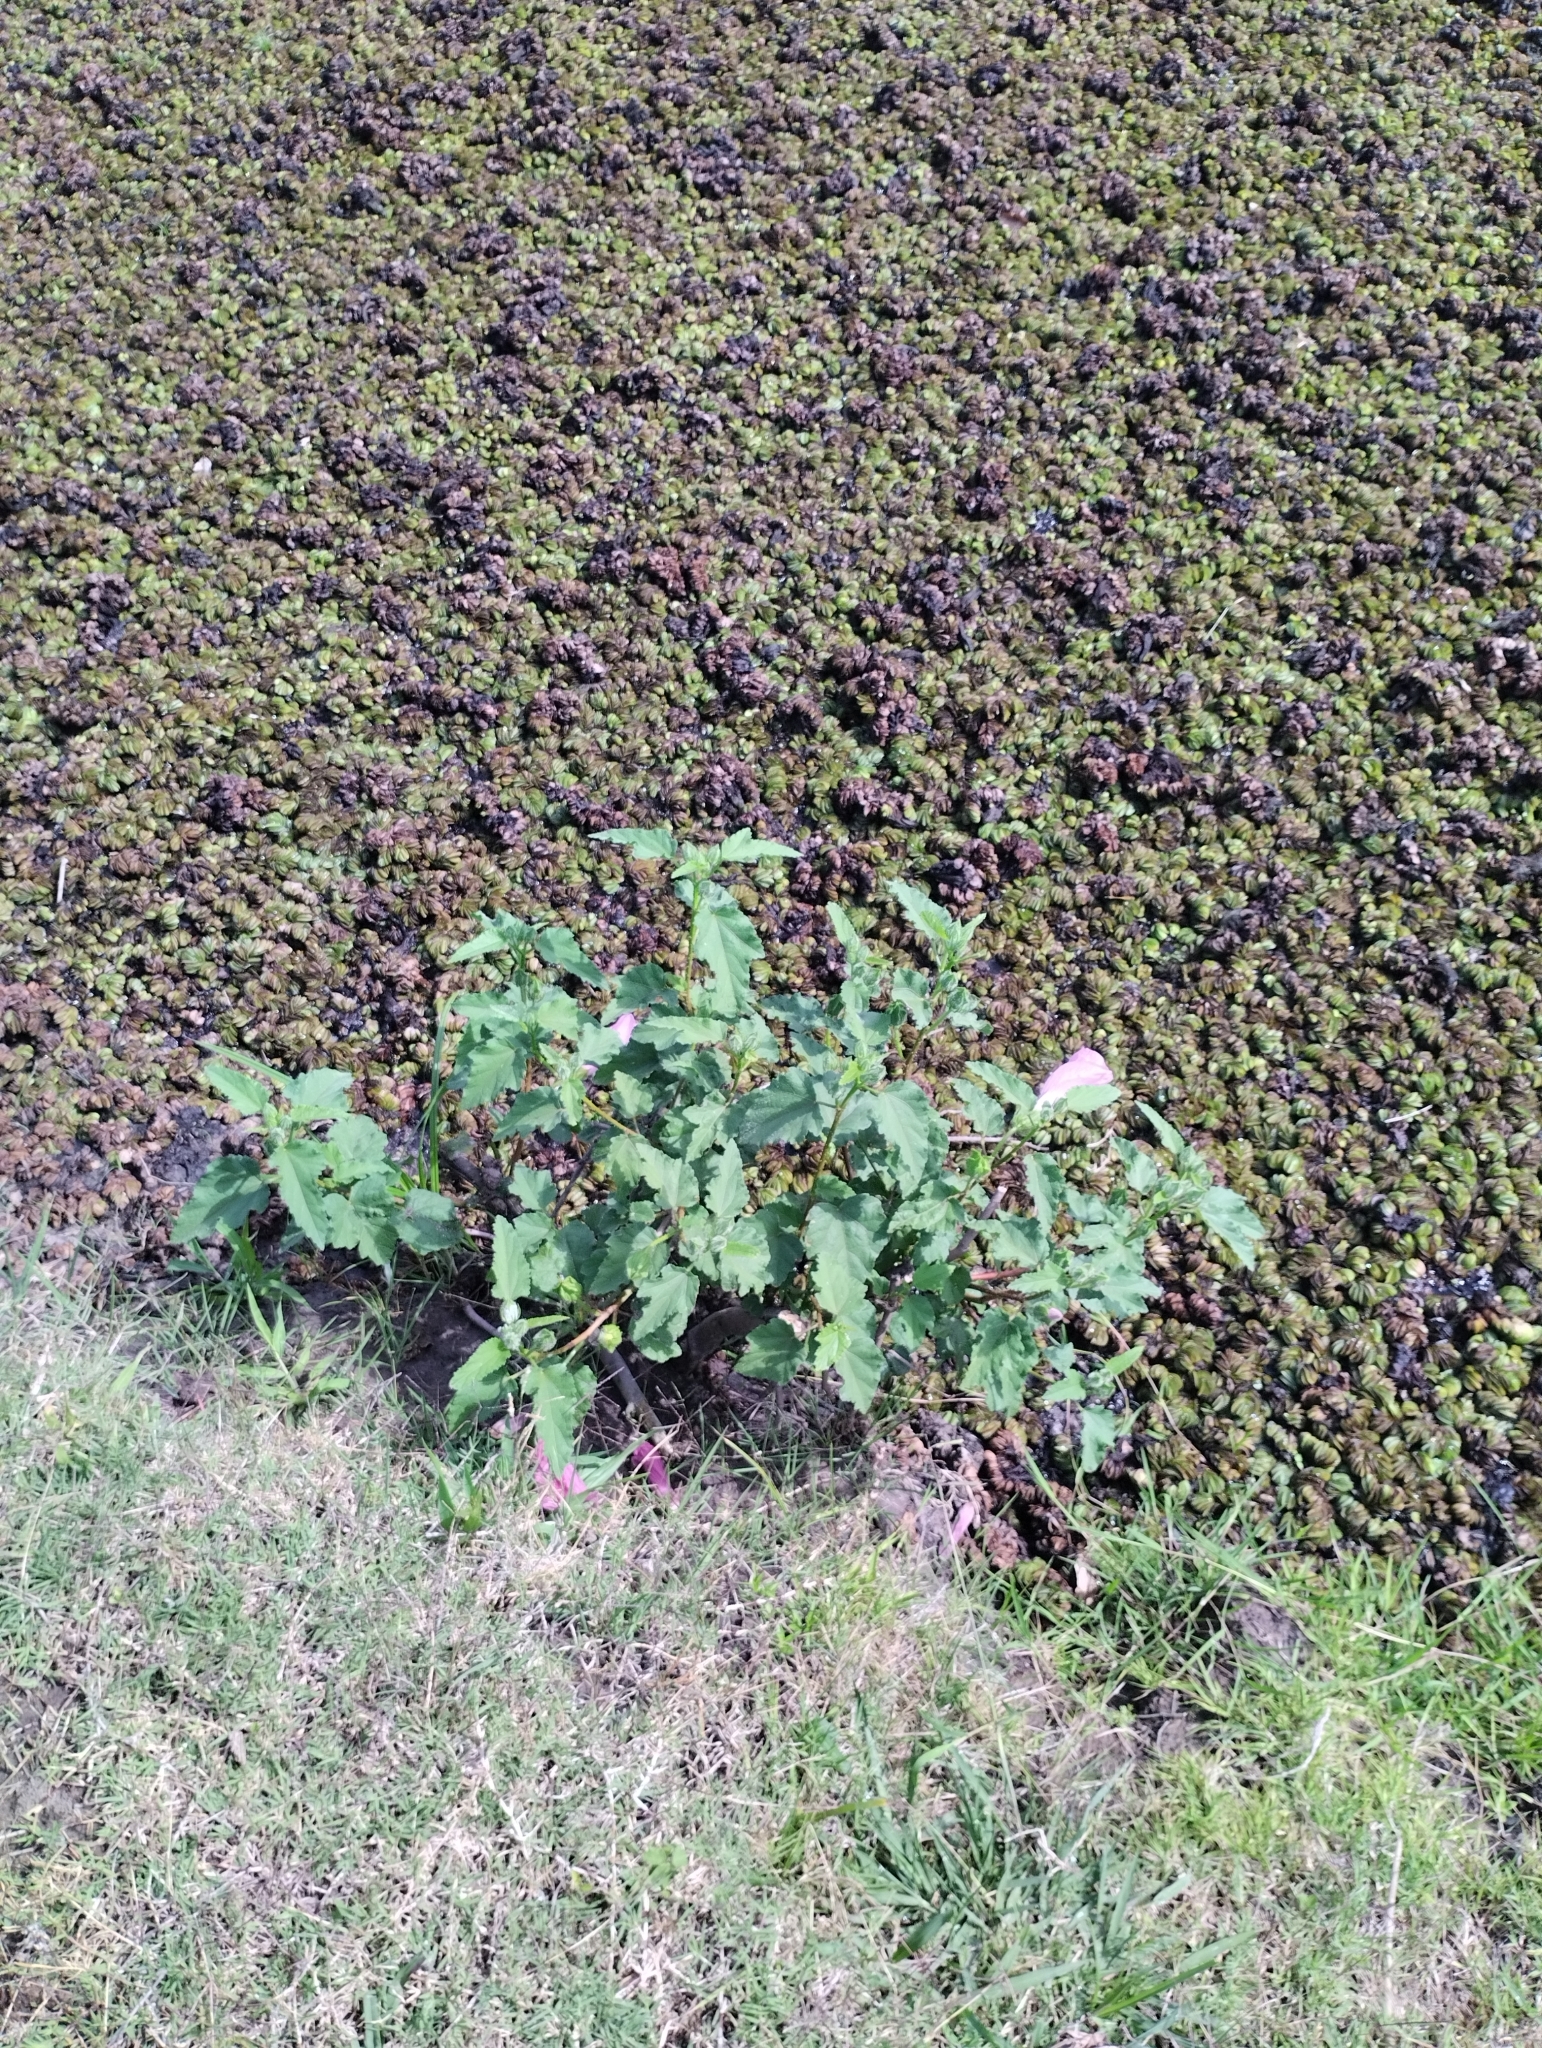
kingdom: Plantae
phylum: Tracheophyta
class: Magnoliopsida
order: Malvales
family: Malvaceae
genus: Hibiscus
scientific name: Hibiscus striatus
